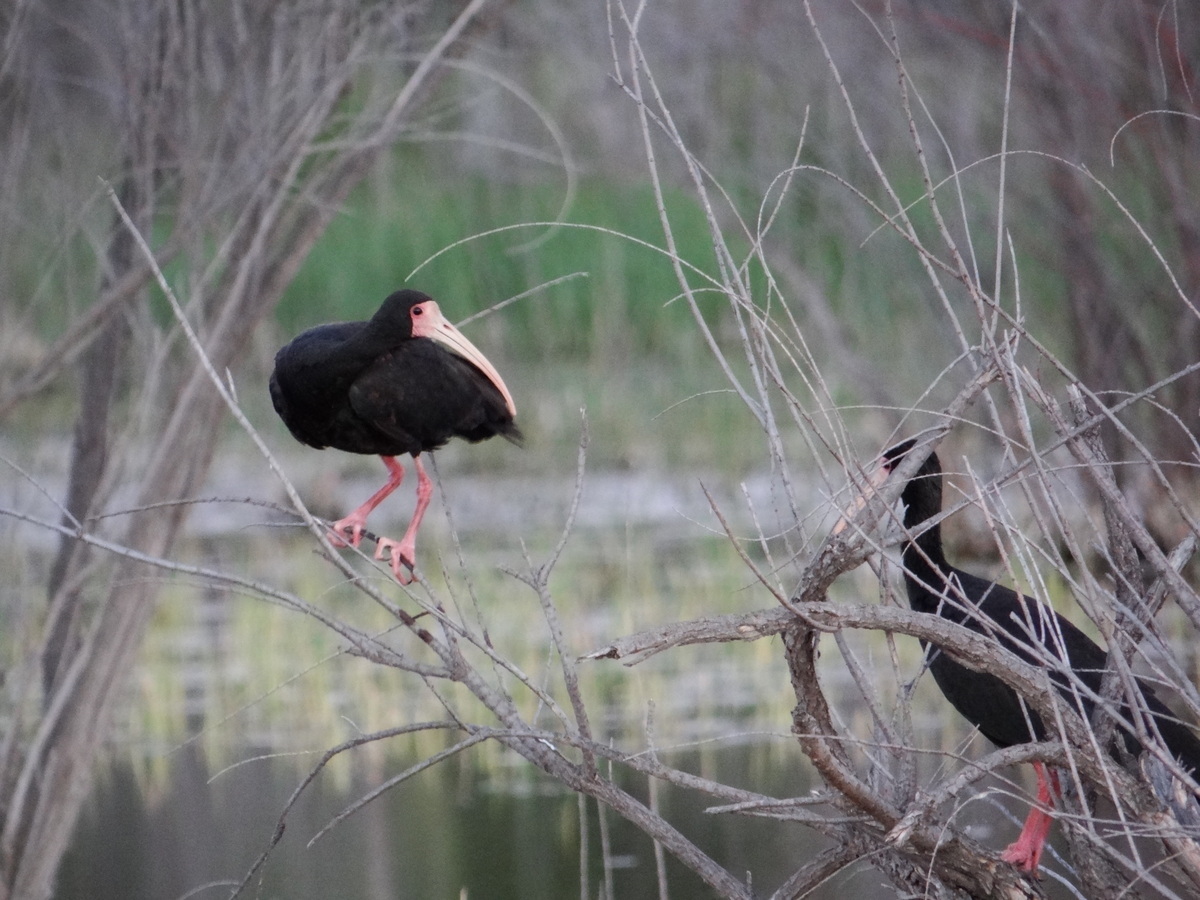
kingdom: Animalia
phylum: Chordata
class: Aves
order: Pelecaniformes
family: Threskiornithidae
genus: Phimosus
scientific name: Phimosus infuscatus
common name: Bare-faced ibis
